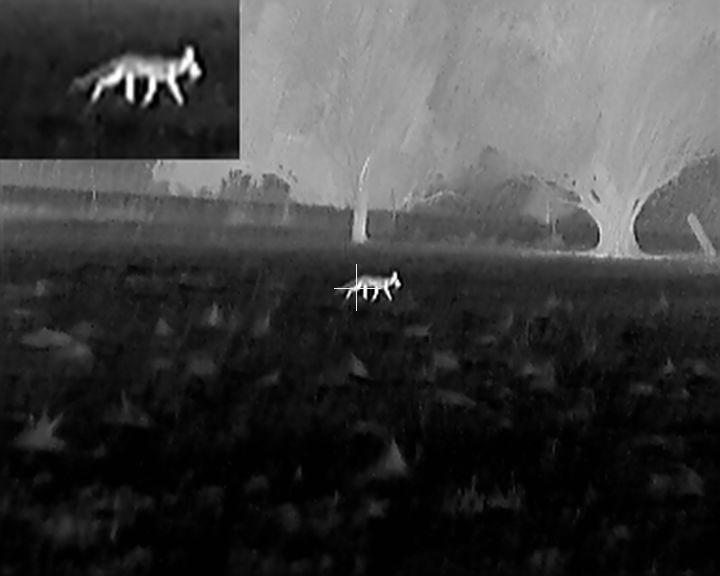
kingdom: Animalia
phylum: Chordata
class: Mammalia
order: Carnivora
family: Canidae
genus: Vulpes
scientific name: Vulpes vulpes
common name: Red fox
